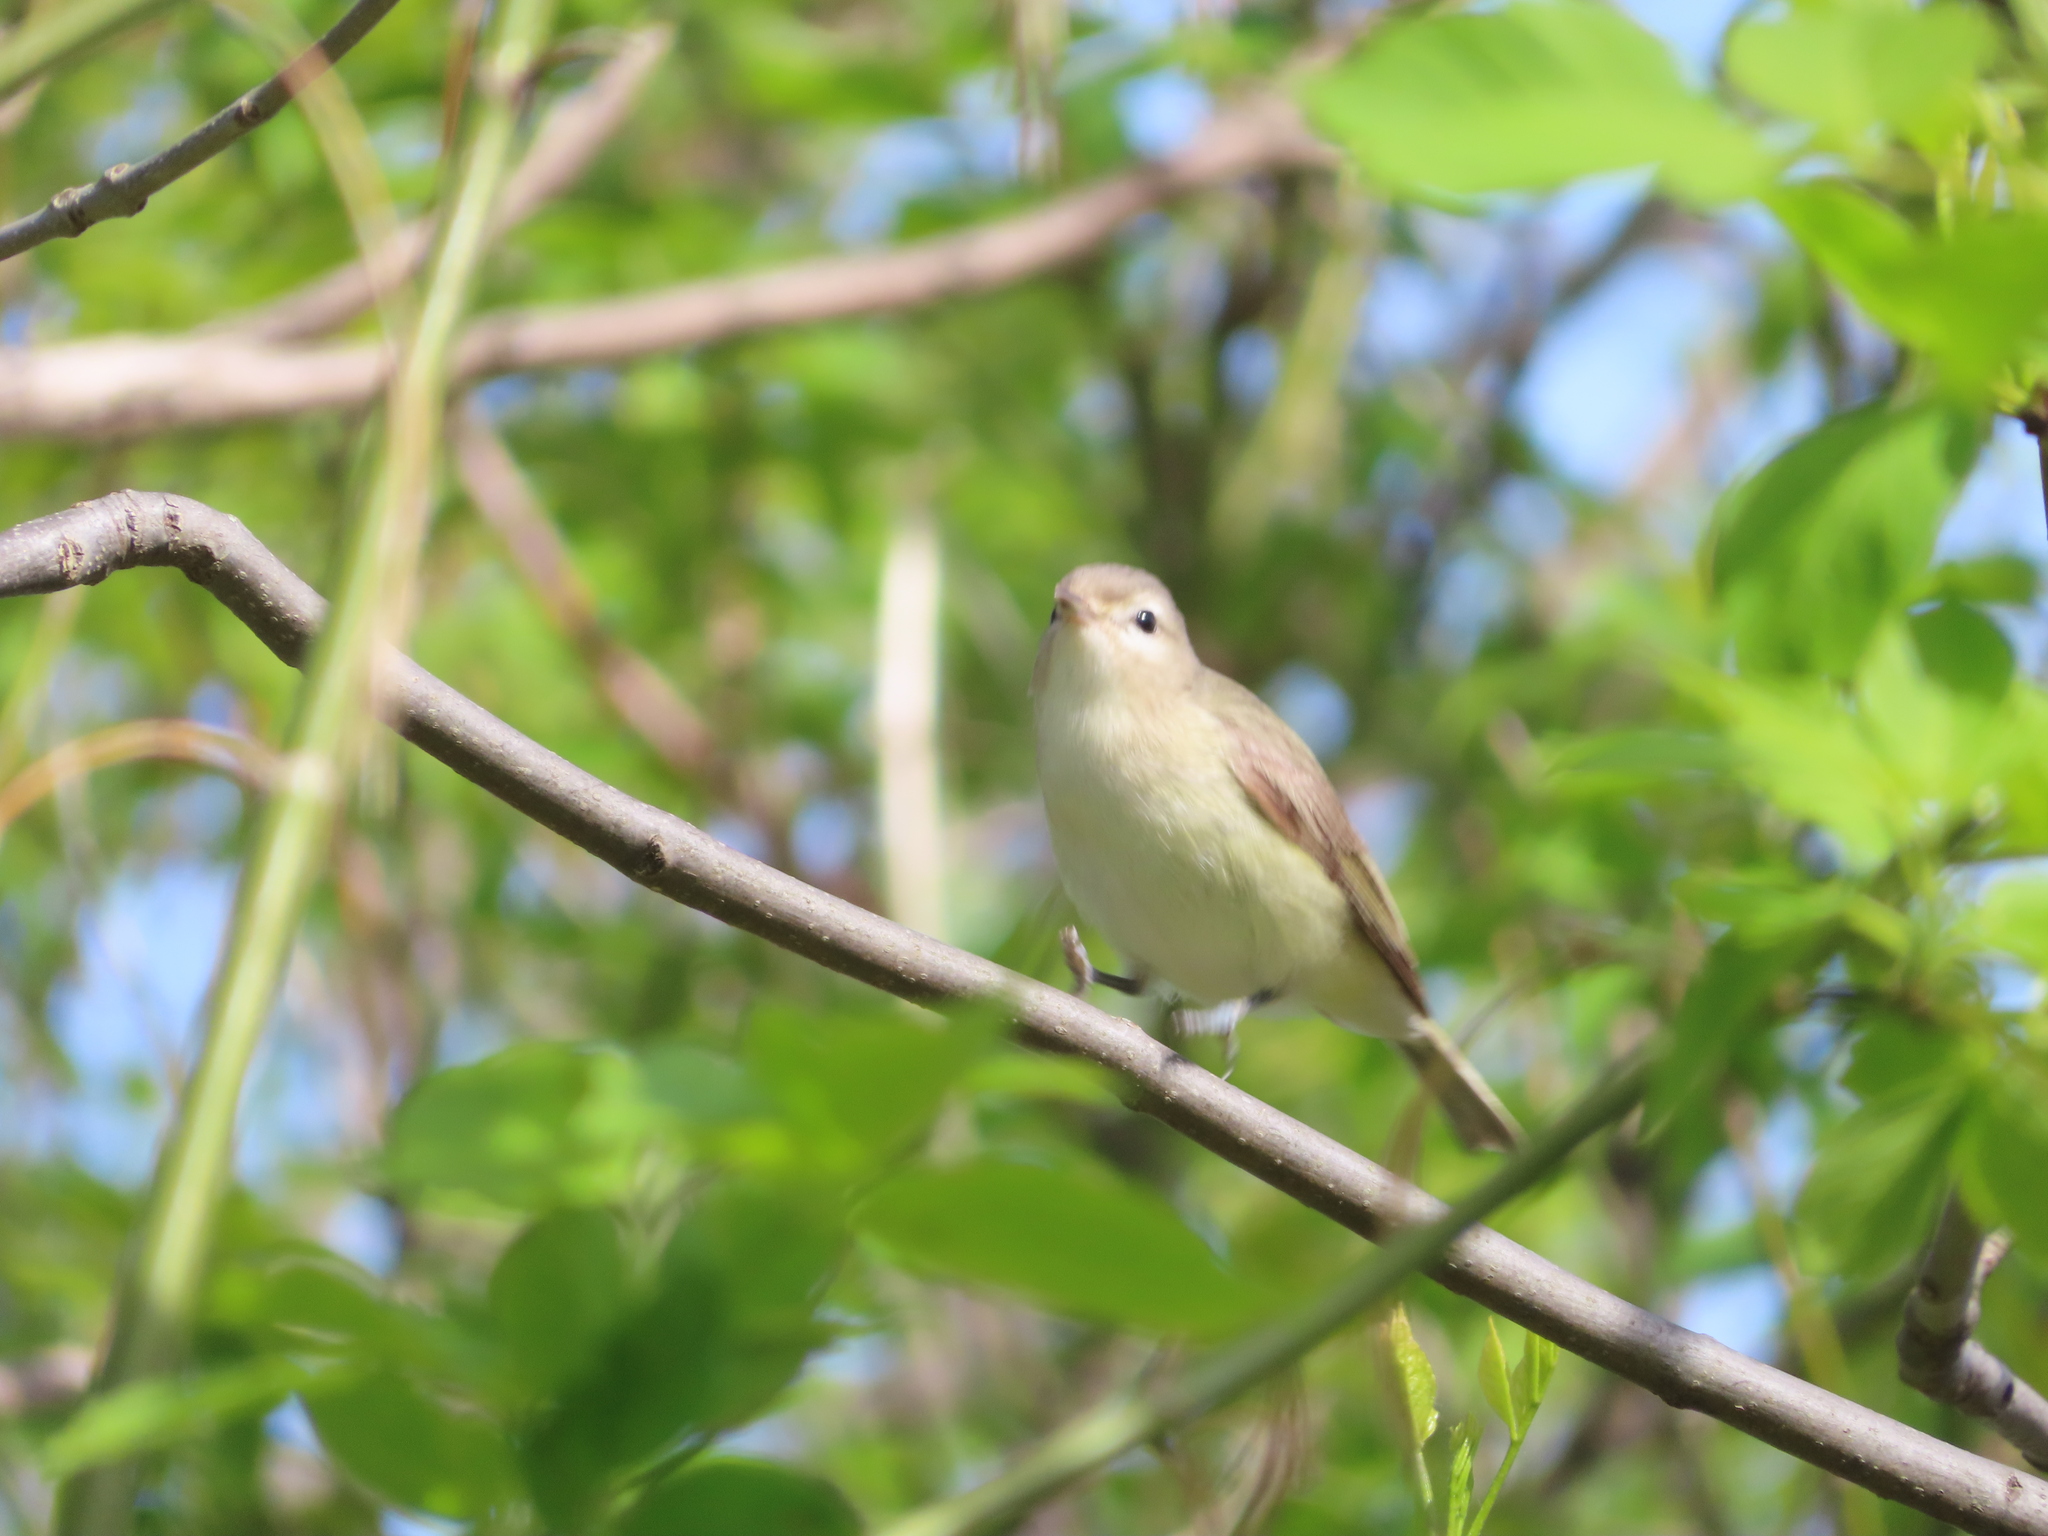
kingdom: Animalia
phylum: Chordata
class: Aves
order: Passeriformes
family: Vireonidae
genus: Vireo
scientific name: Vireo gilvus
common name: Warbling vireo
